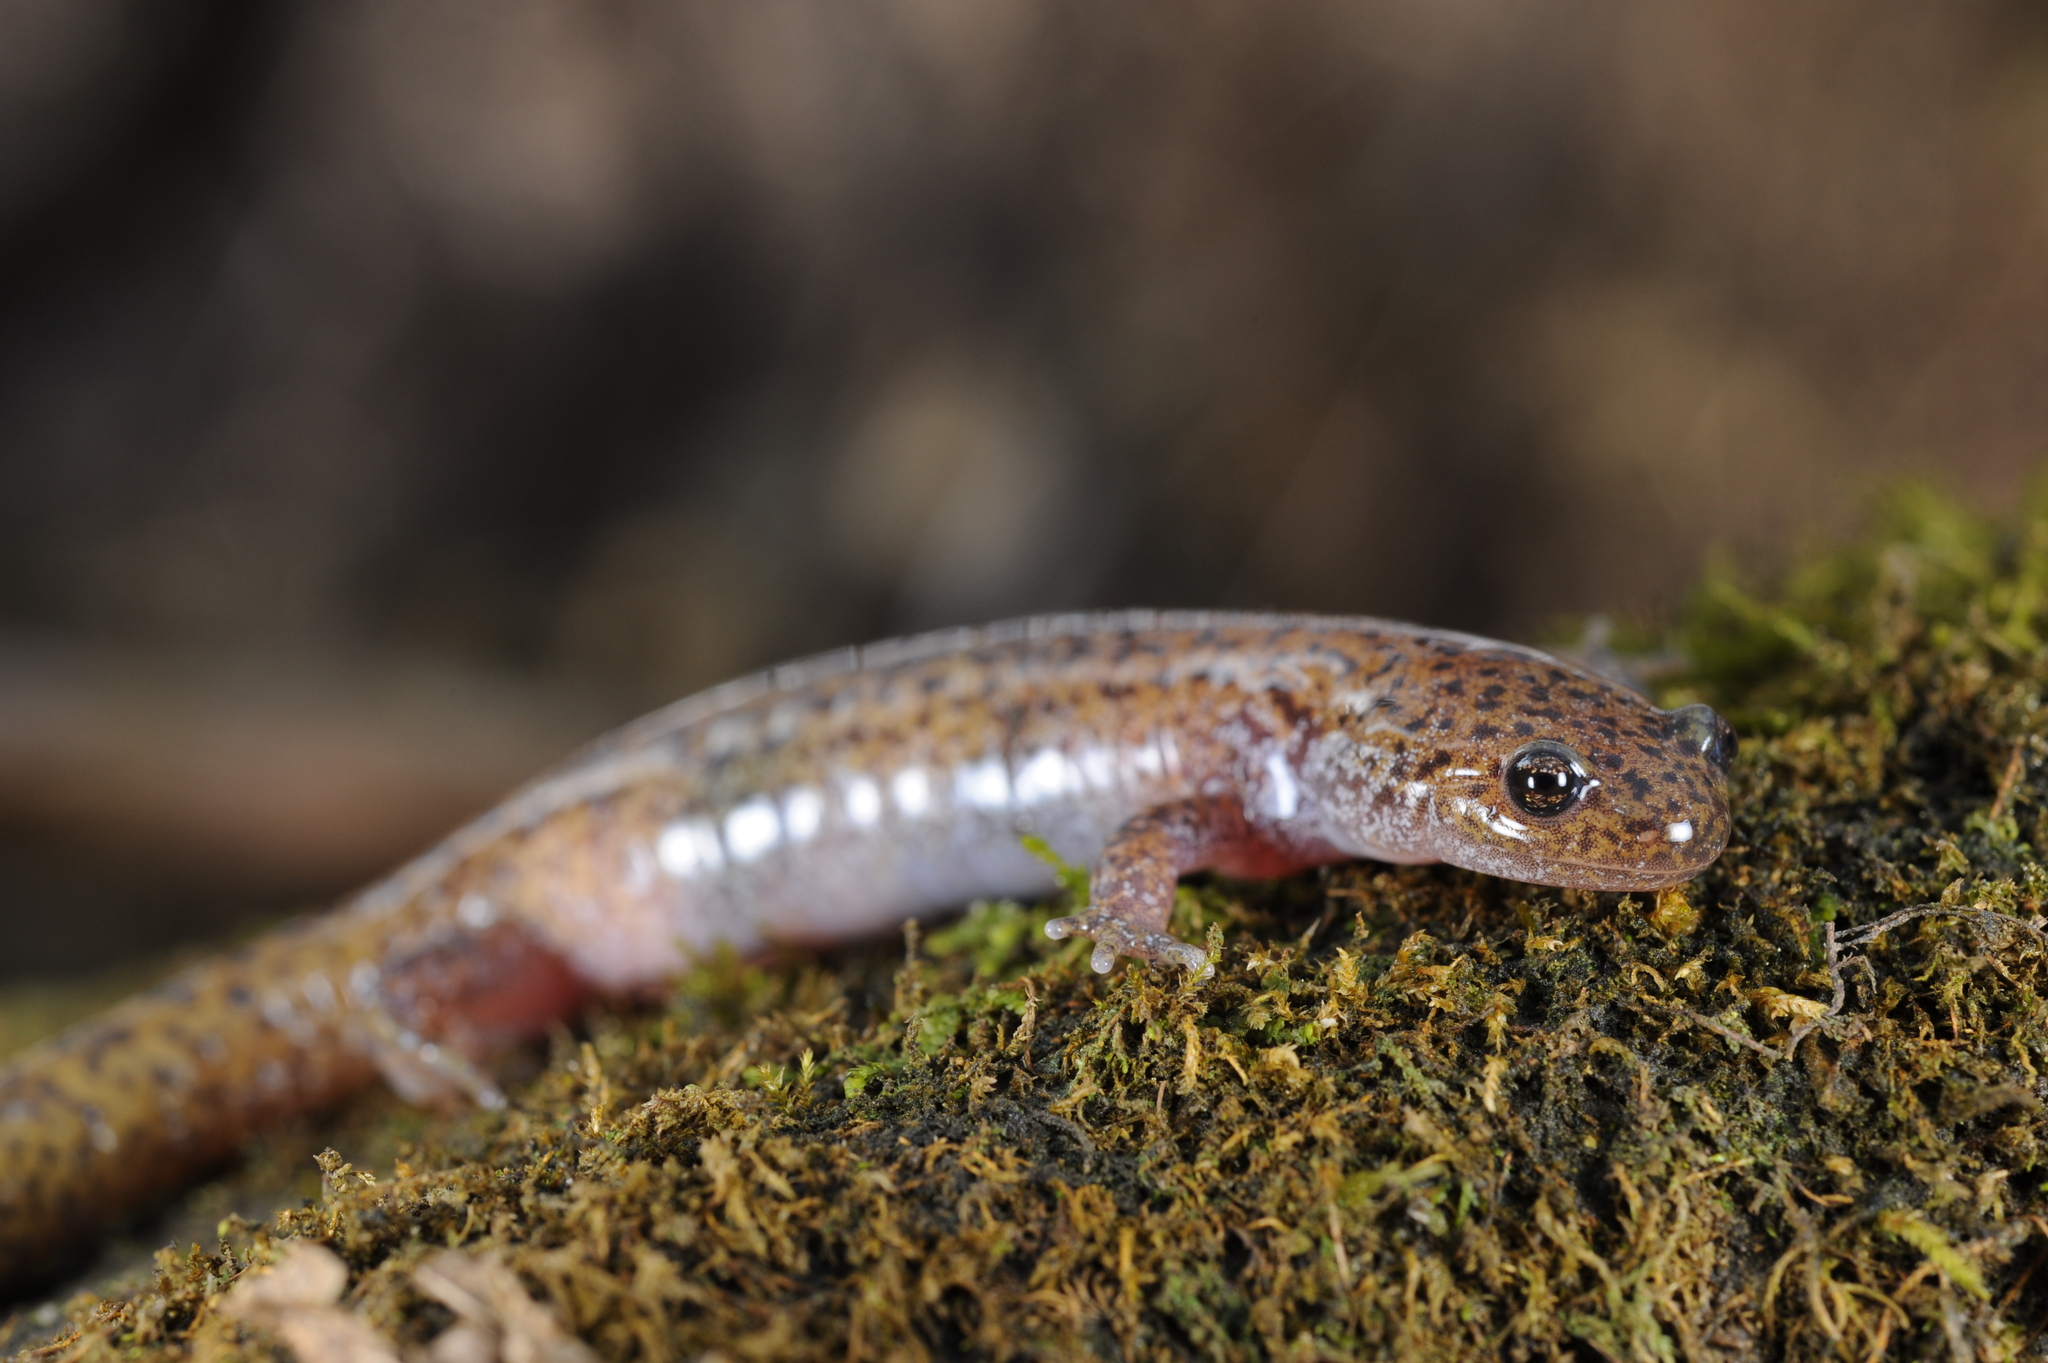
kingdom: Animalia
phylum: Chordata
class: Amphibia
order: Caudata
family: Hynobiidae
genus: Hynobius
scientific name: Hynobius notialis
